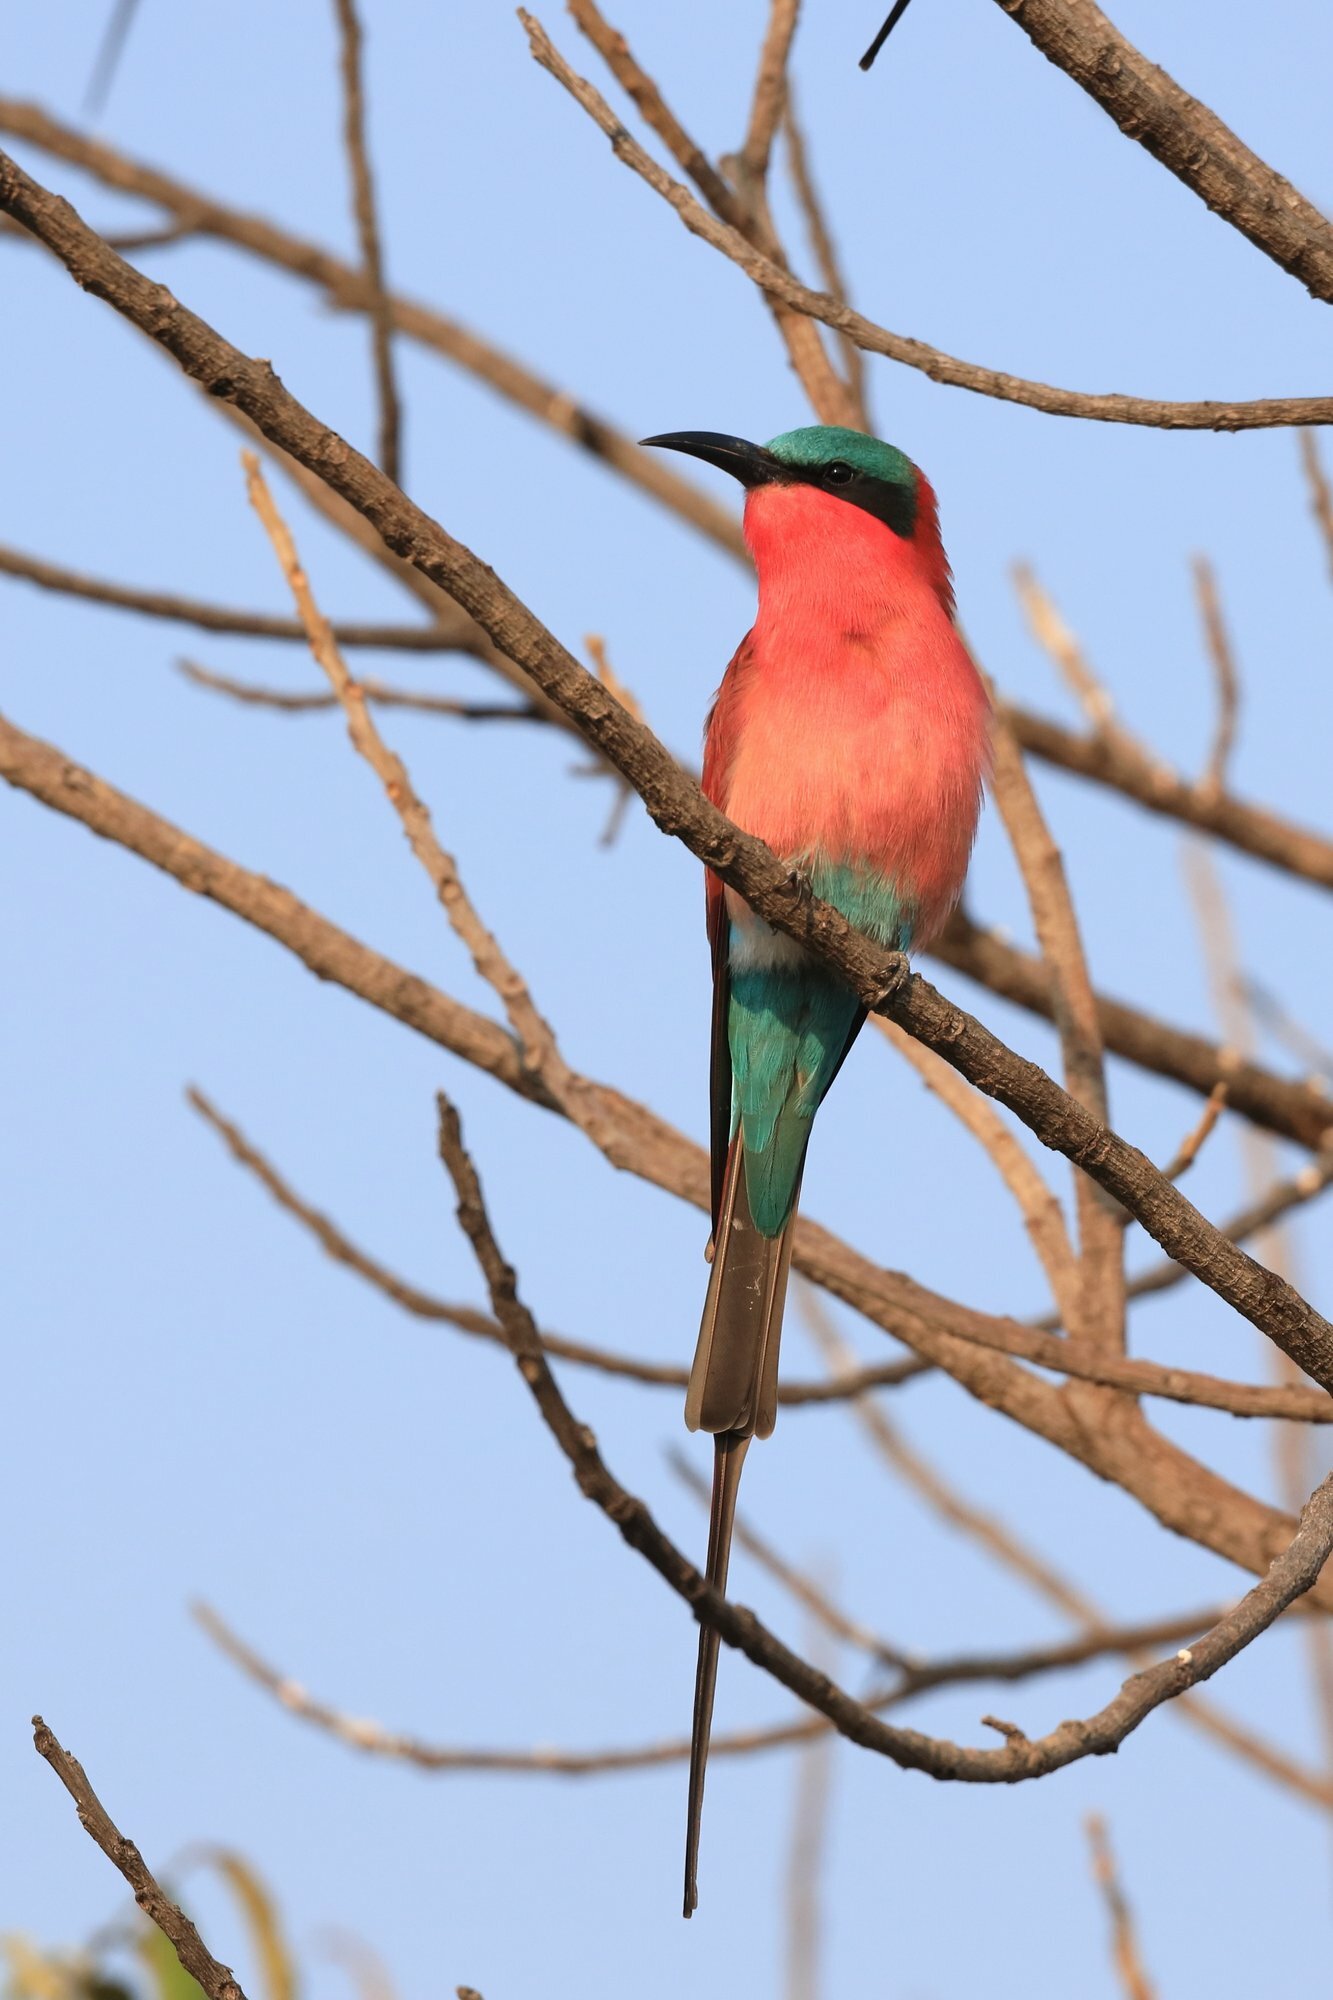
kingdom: Animalia
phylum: Chordata
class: Aves
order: Coraciiformes
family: Meropidae
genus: Merops
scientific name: Merops nubicoides
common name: Southern carmine bee-eater
